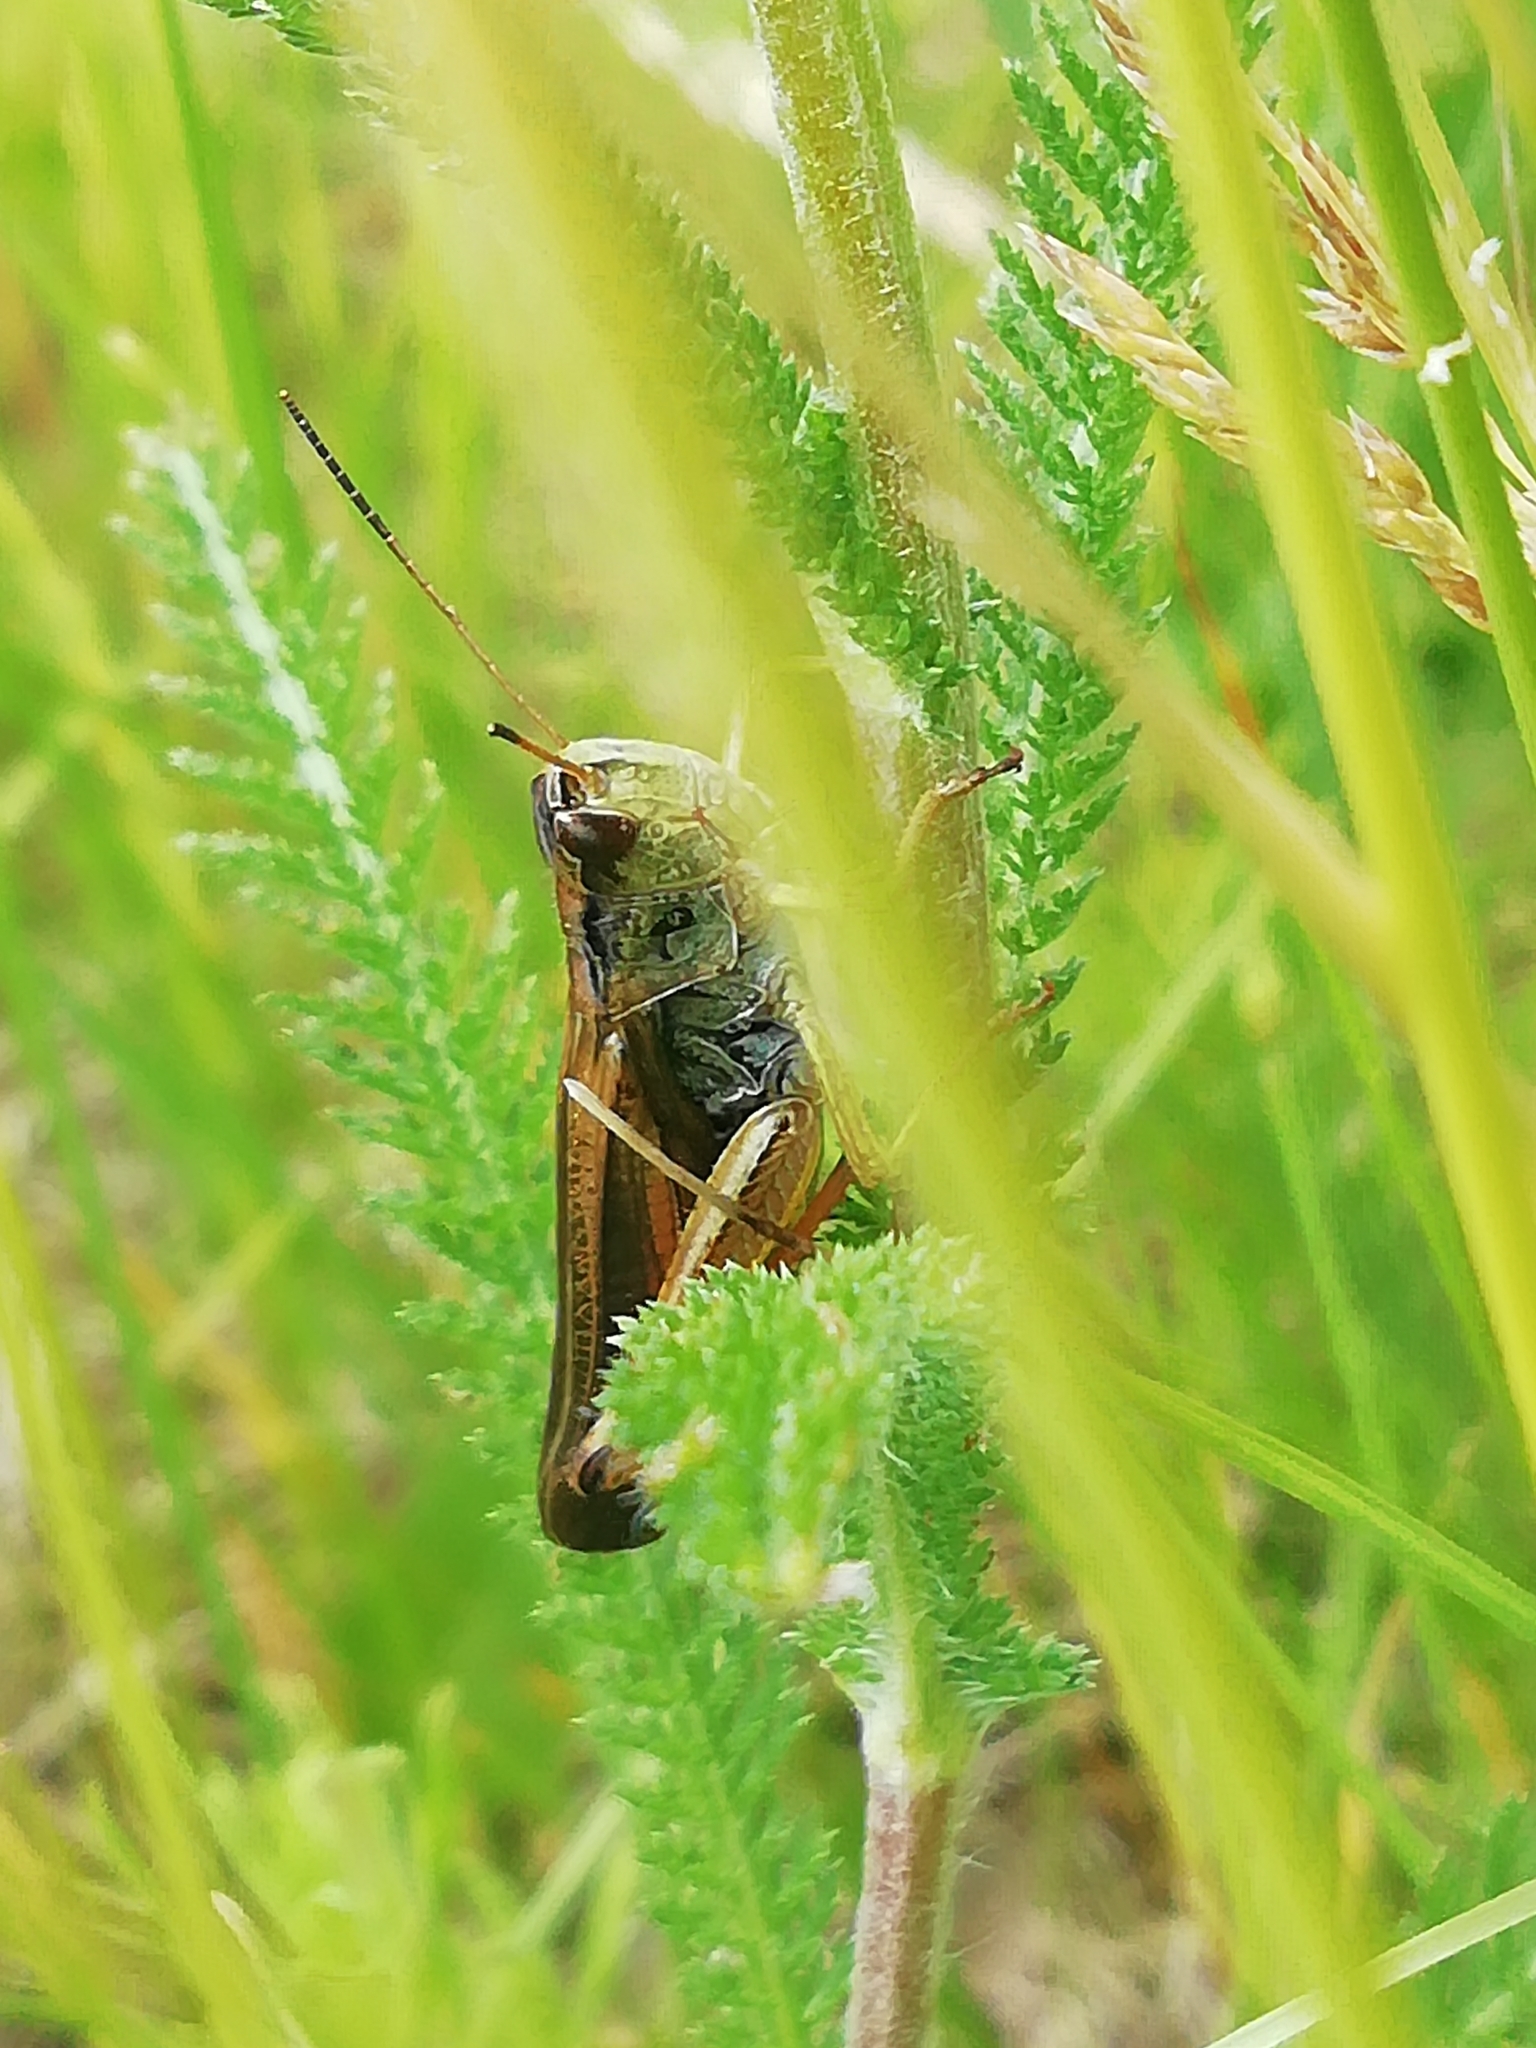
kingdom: Animalia
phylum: Arthropoda
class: Insecta
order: Orthoptera
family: Acrididae
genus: Stauroderus
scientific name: Stauroderus scalaris
